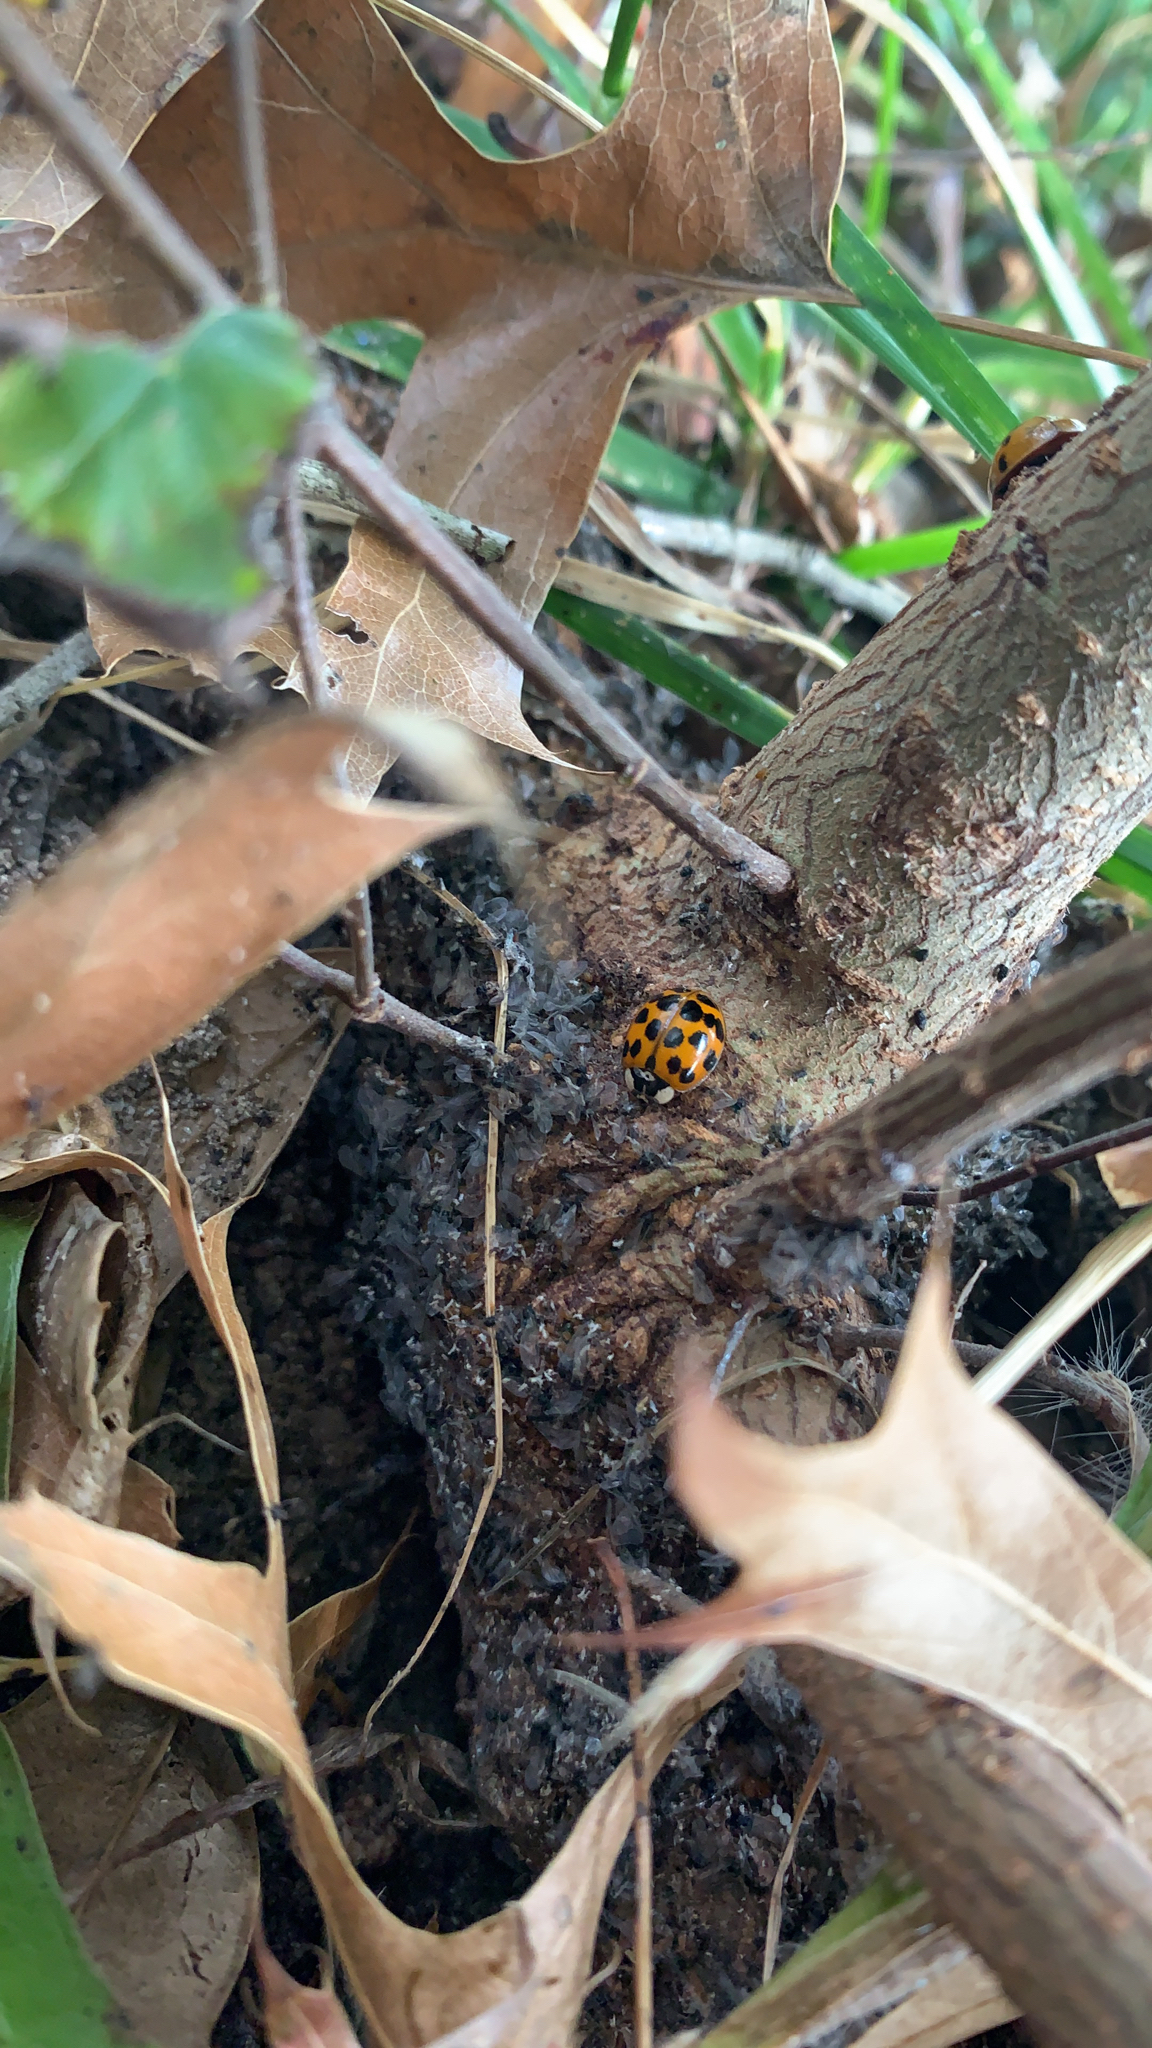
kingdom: Animalia
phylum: Arthropoda
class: Insecta
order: Coleoptera
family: Coccinellidae
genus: Harmonia
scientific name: Harmonia axyridis
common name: Harlequin ladybird
